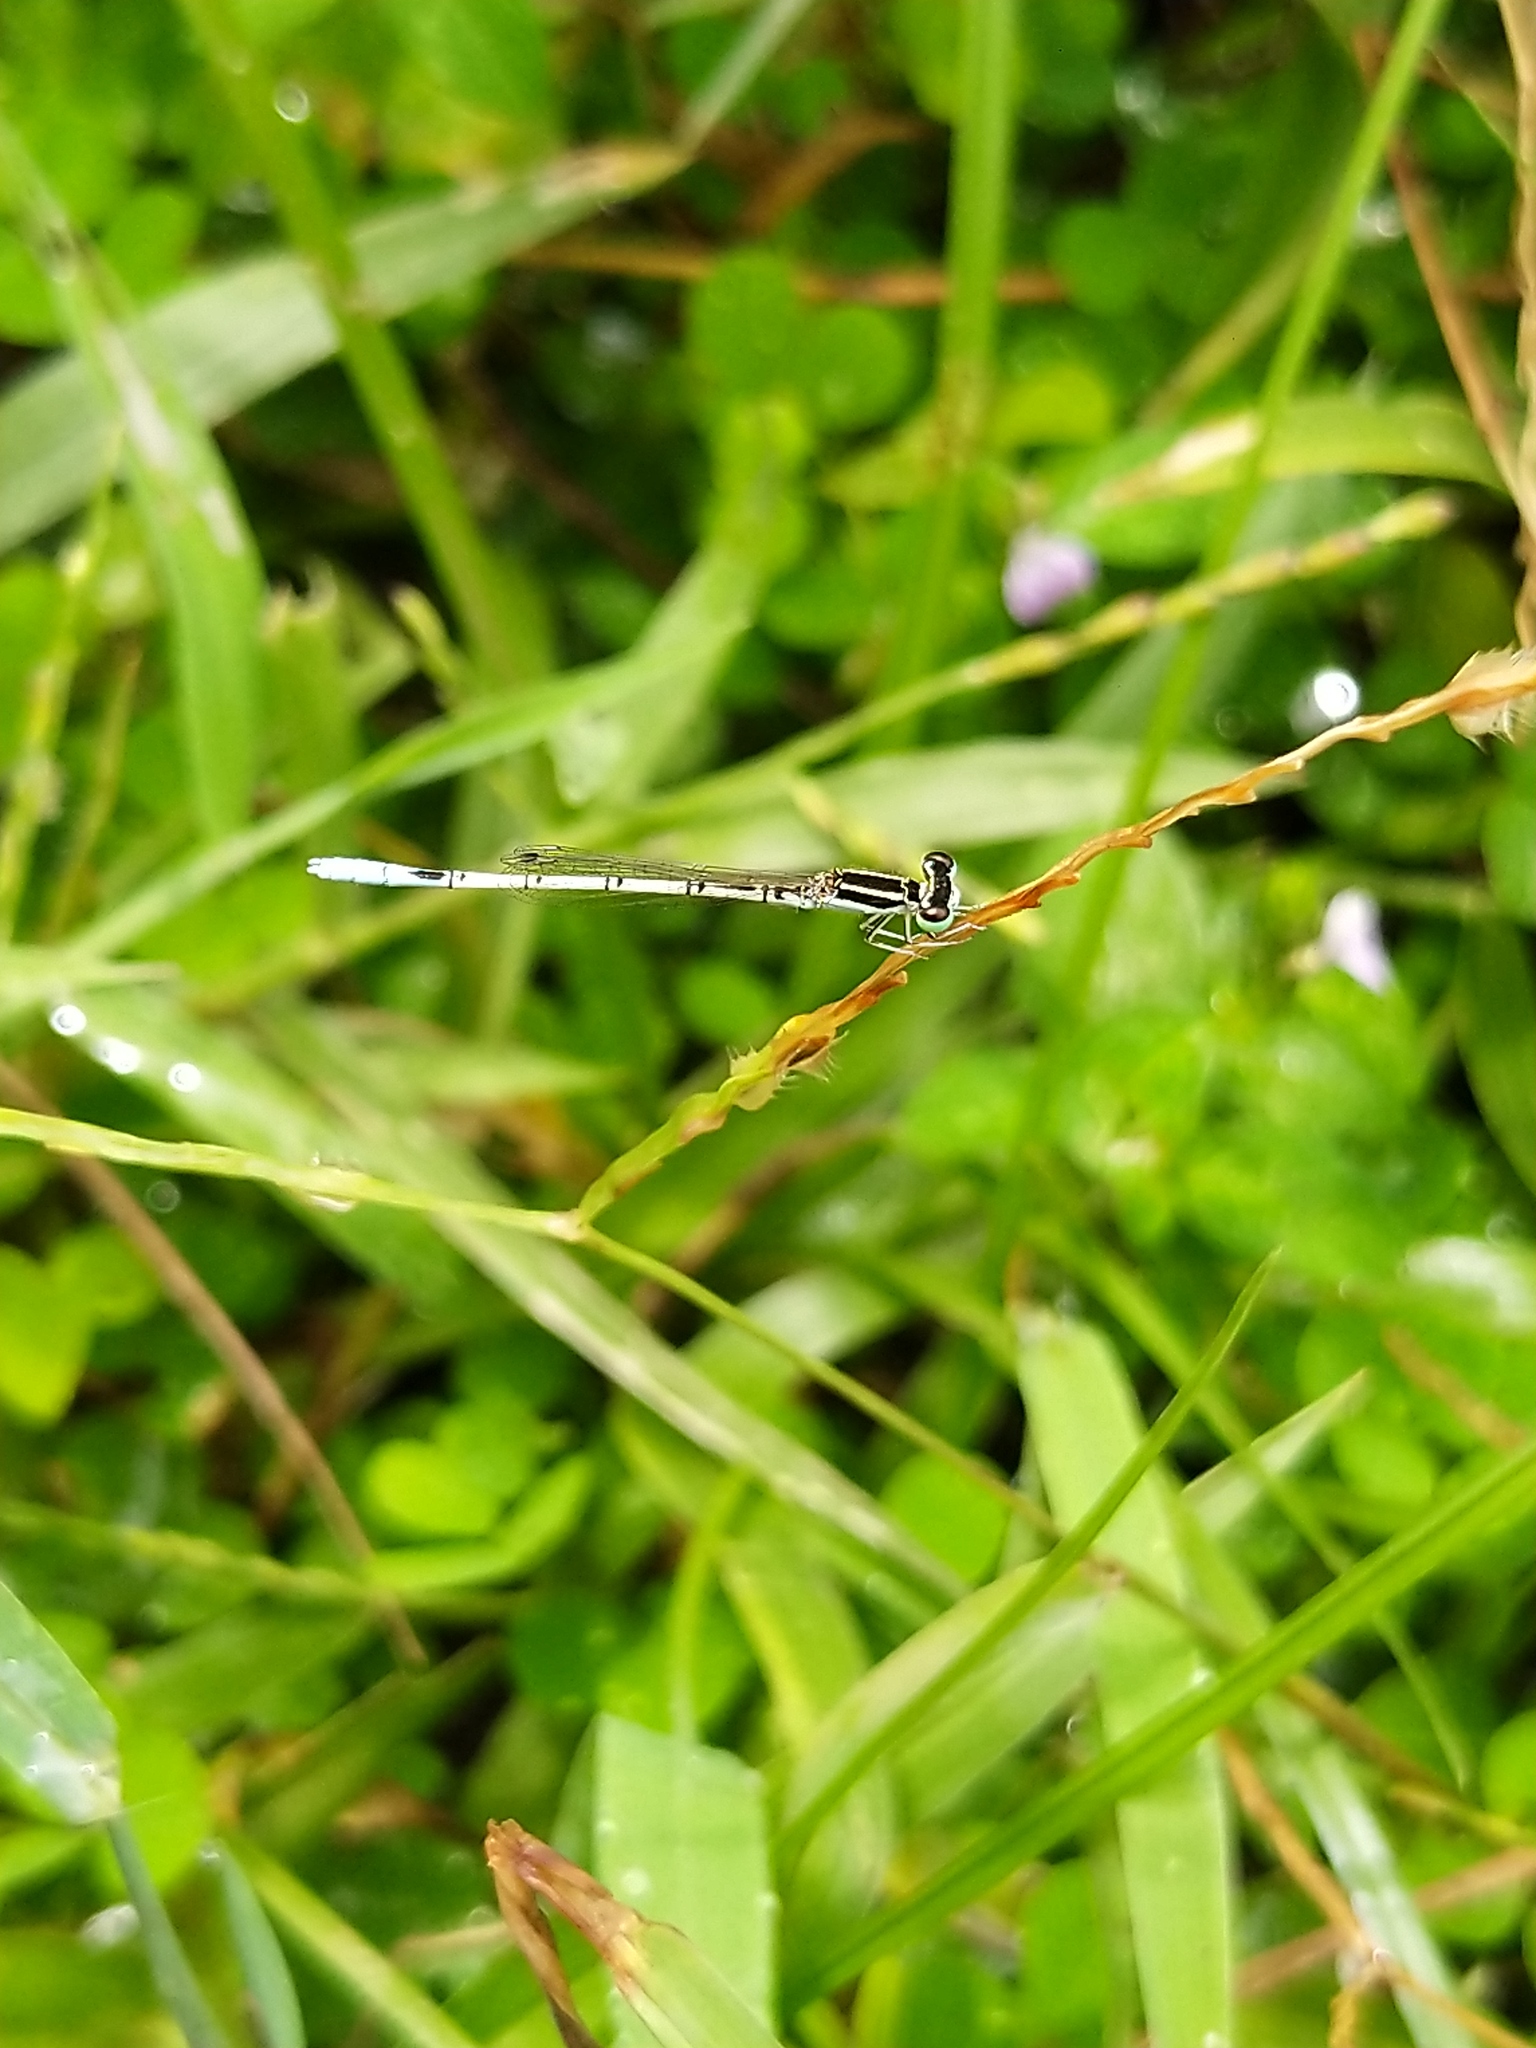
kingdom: Animalia
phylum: Arthropoda
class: Insecta
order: Odonata
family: Coenagrionidae
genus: Agriocnemis
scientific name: Agriocnemis pieris
